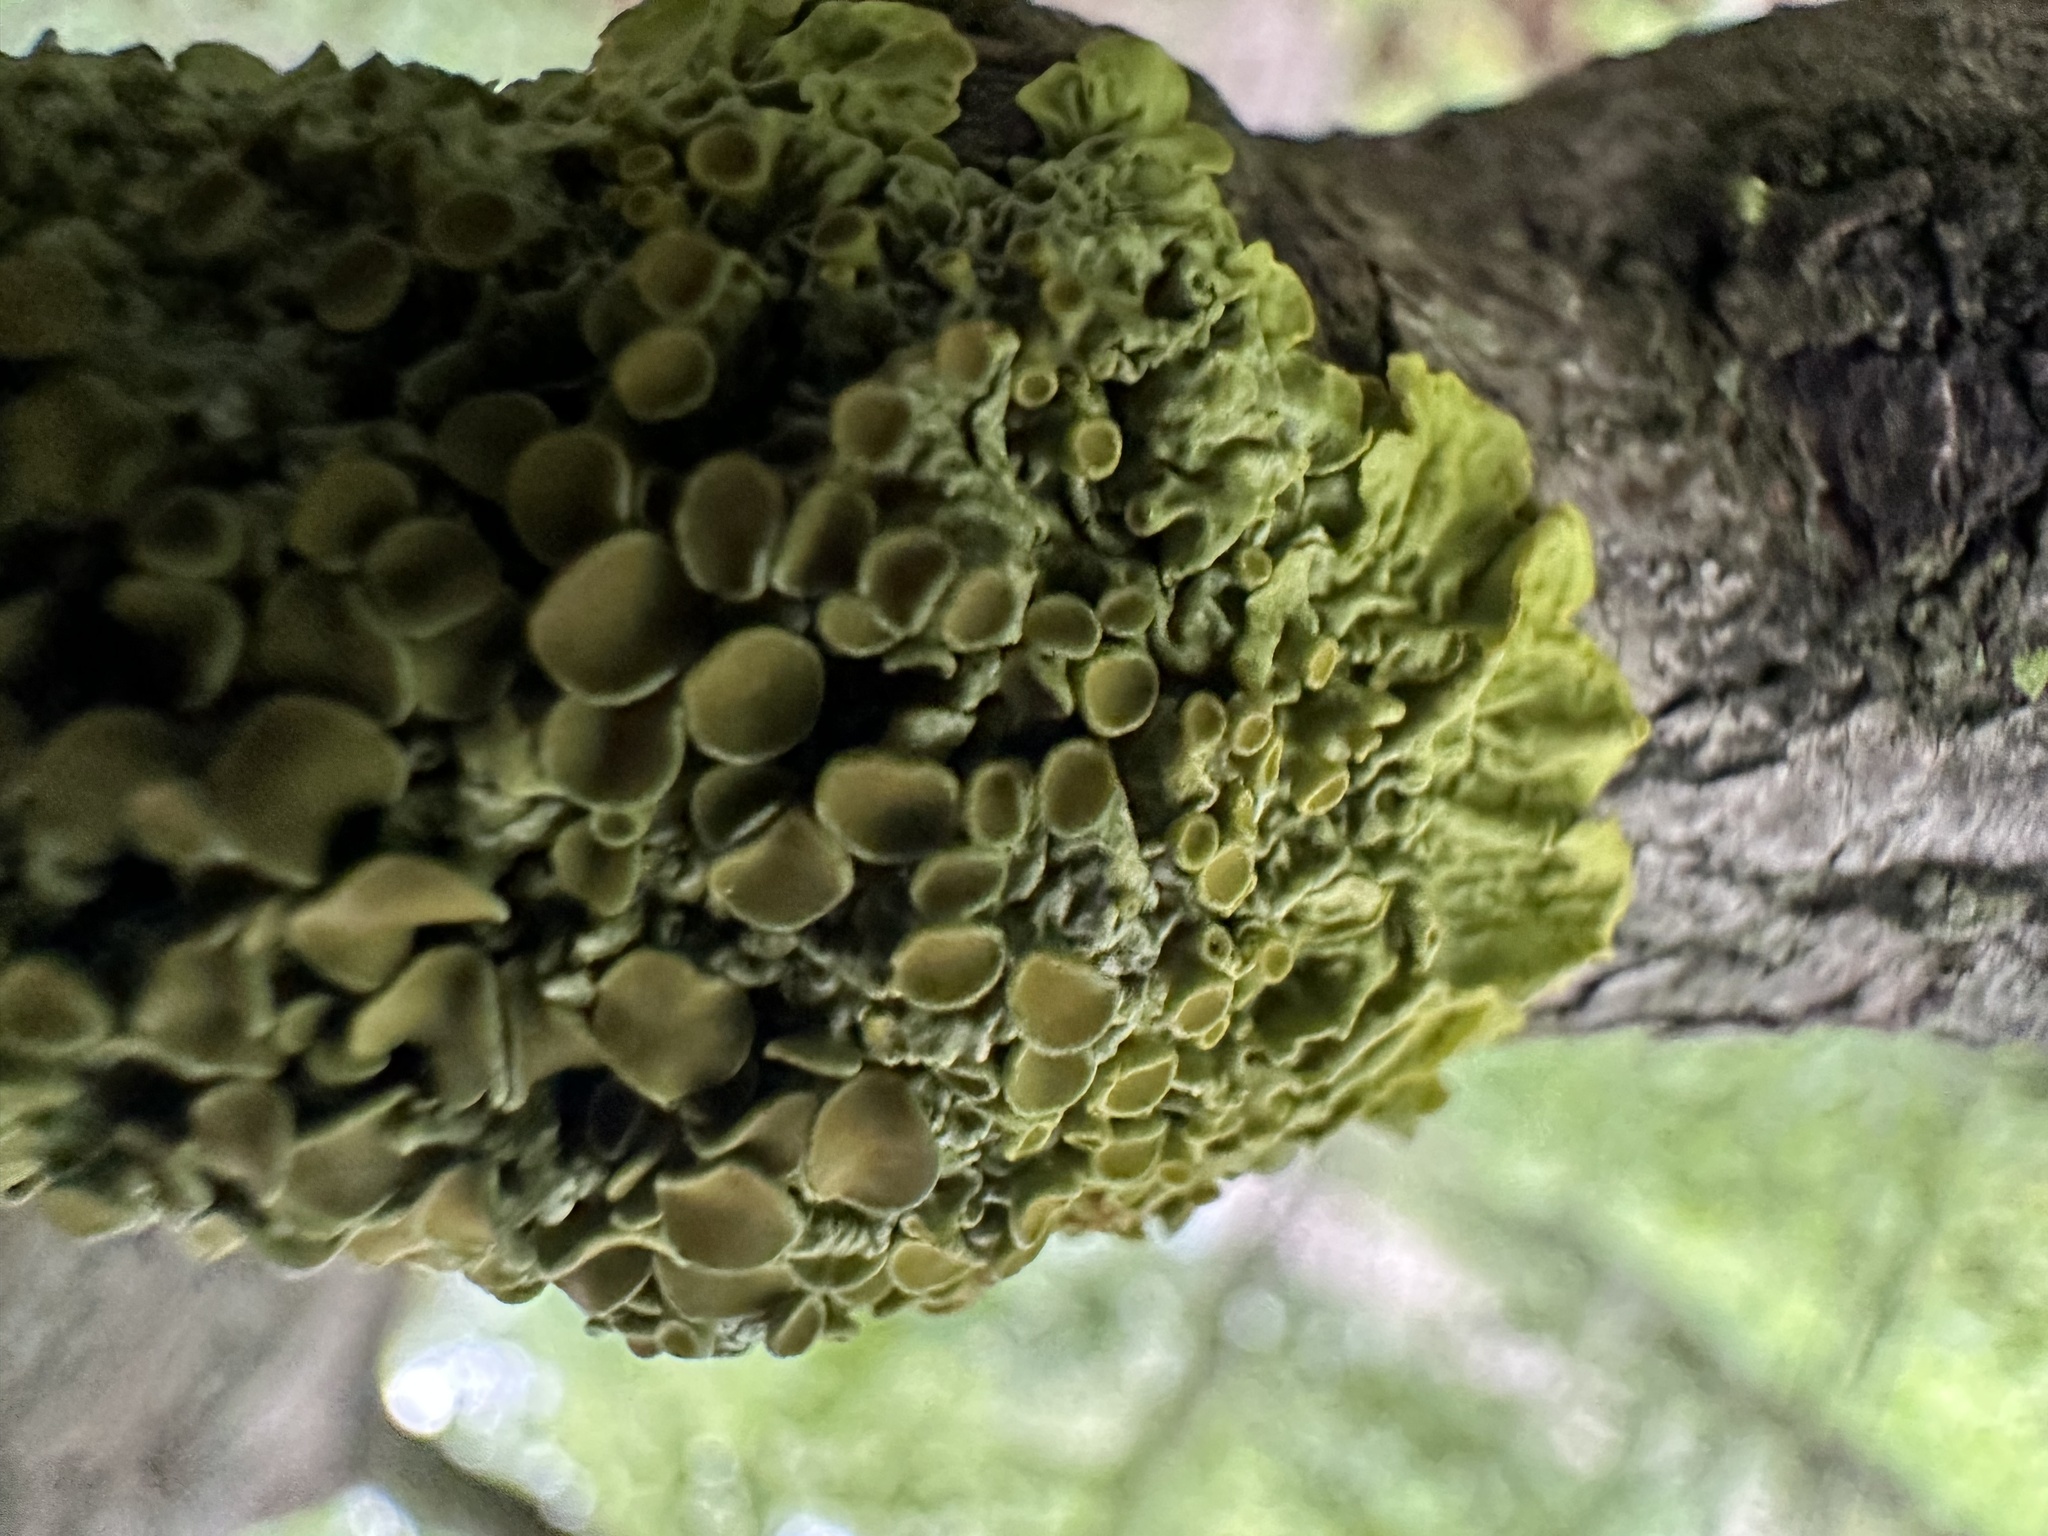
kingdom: Fungi
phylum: Ascomycota
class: Lecanoromycetes
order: Teloschistales
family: Teloschistaceae
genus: Xanthoria
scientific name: Xanthoria parietina
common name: Common orange lichen
